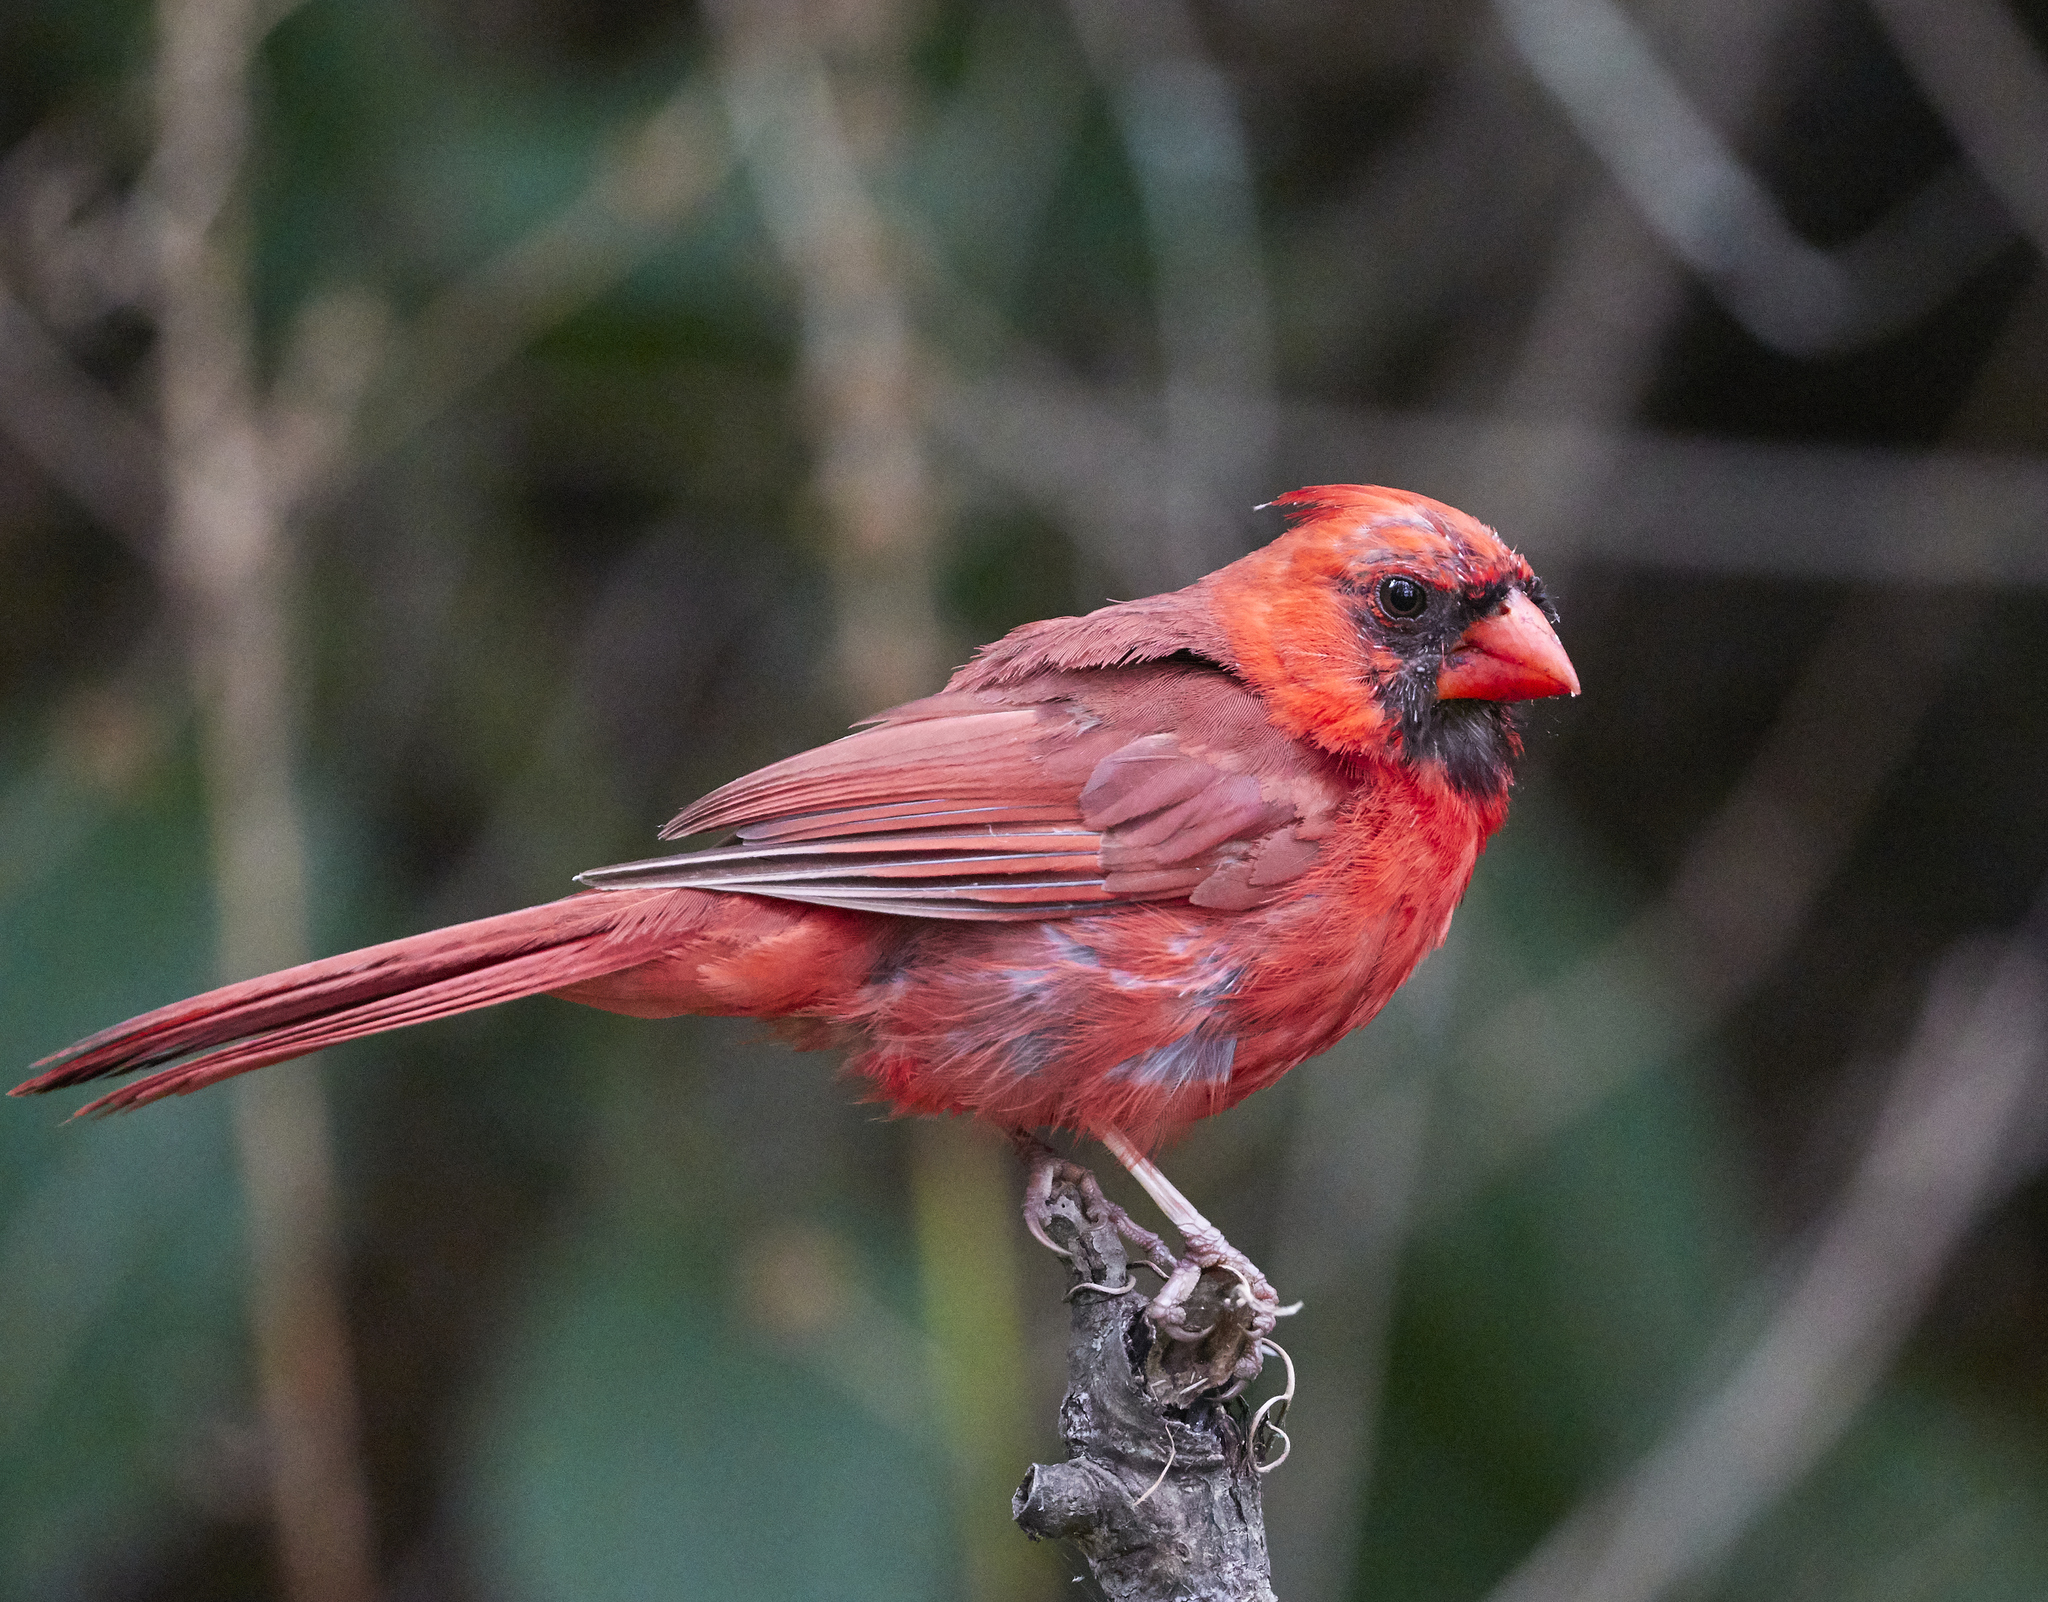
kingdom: Animalia
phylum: Chordata
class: Aves
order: Passeriformes
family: Cardinalidae
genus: Cardinalis
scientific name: Cardinalis cardinalis
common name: Northern cardinal
